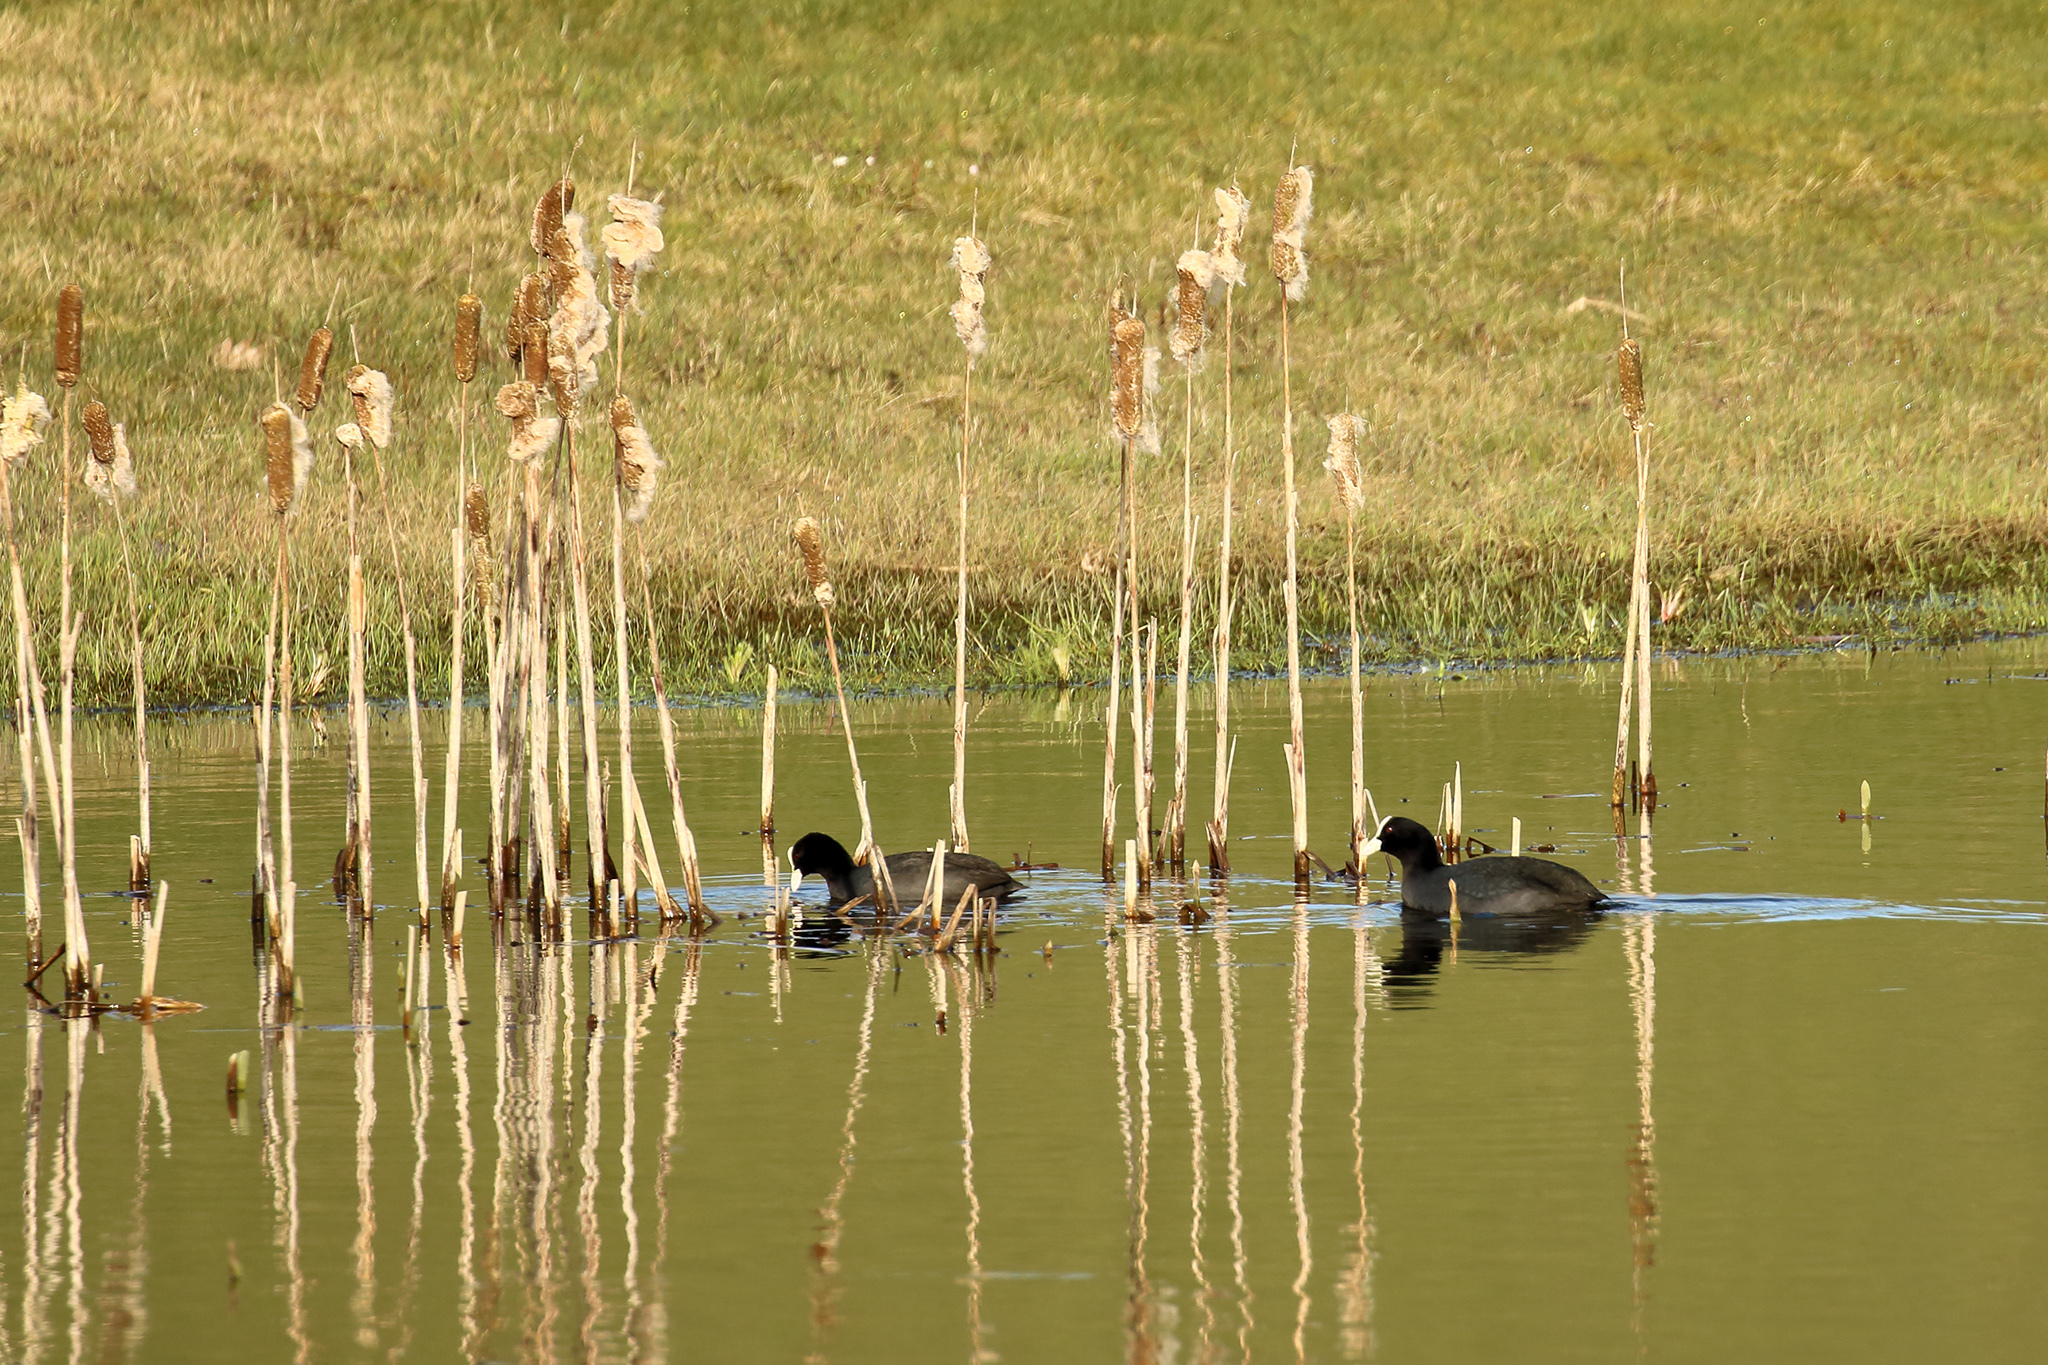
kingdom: Animalia
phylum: Chordata
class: Aves
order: Gruiformes
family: Rallidae
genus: Fulica
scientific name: Fulica atra
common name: Eurasian coot
